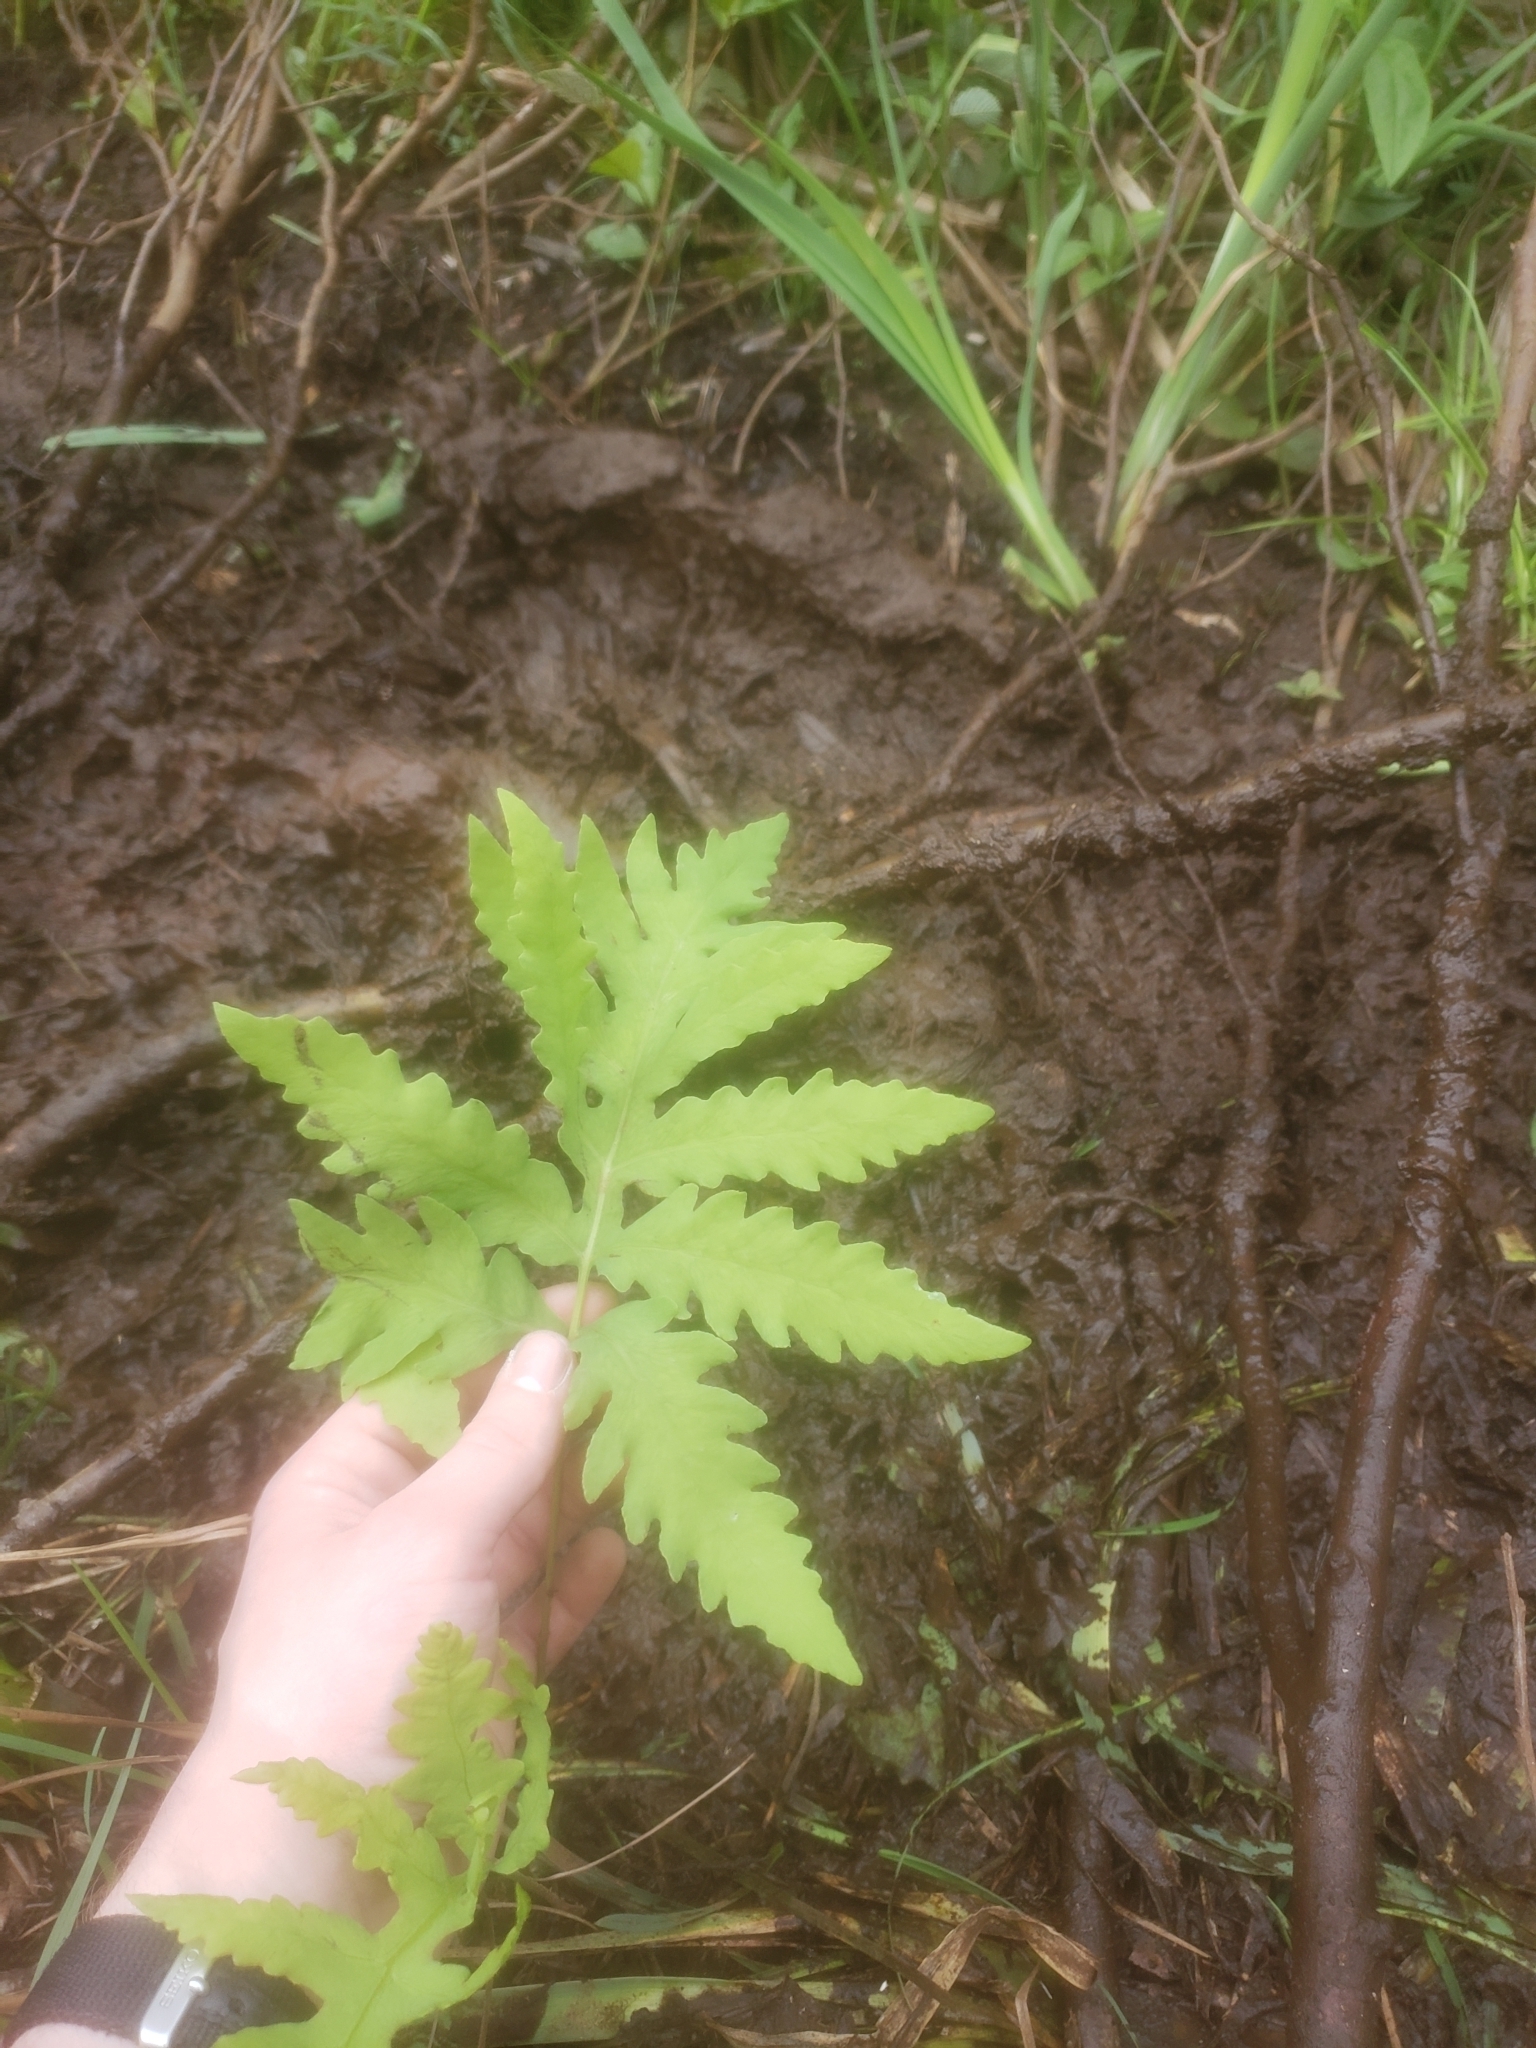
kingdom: Plantae
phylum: Tracheophyta
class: Polypodiopsida
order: Polypodiales
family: Onocleaceae
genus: Onoclea
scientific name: Onoclea sensibilis
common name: Sensitive fern
